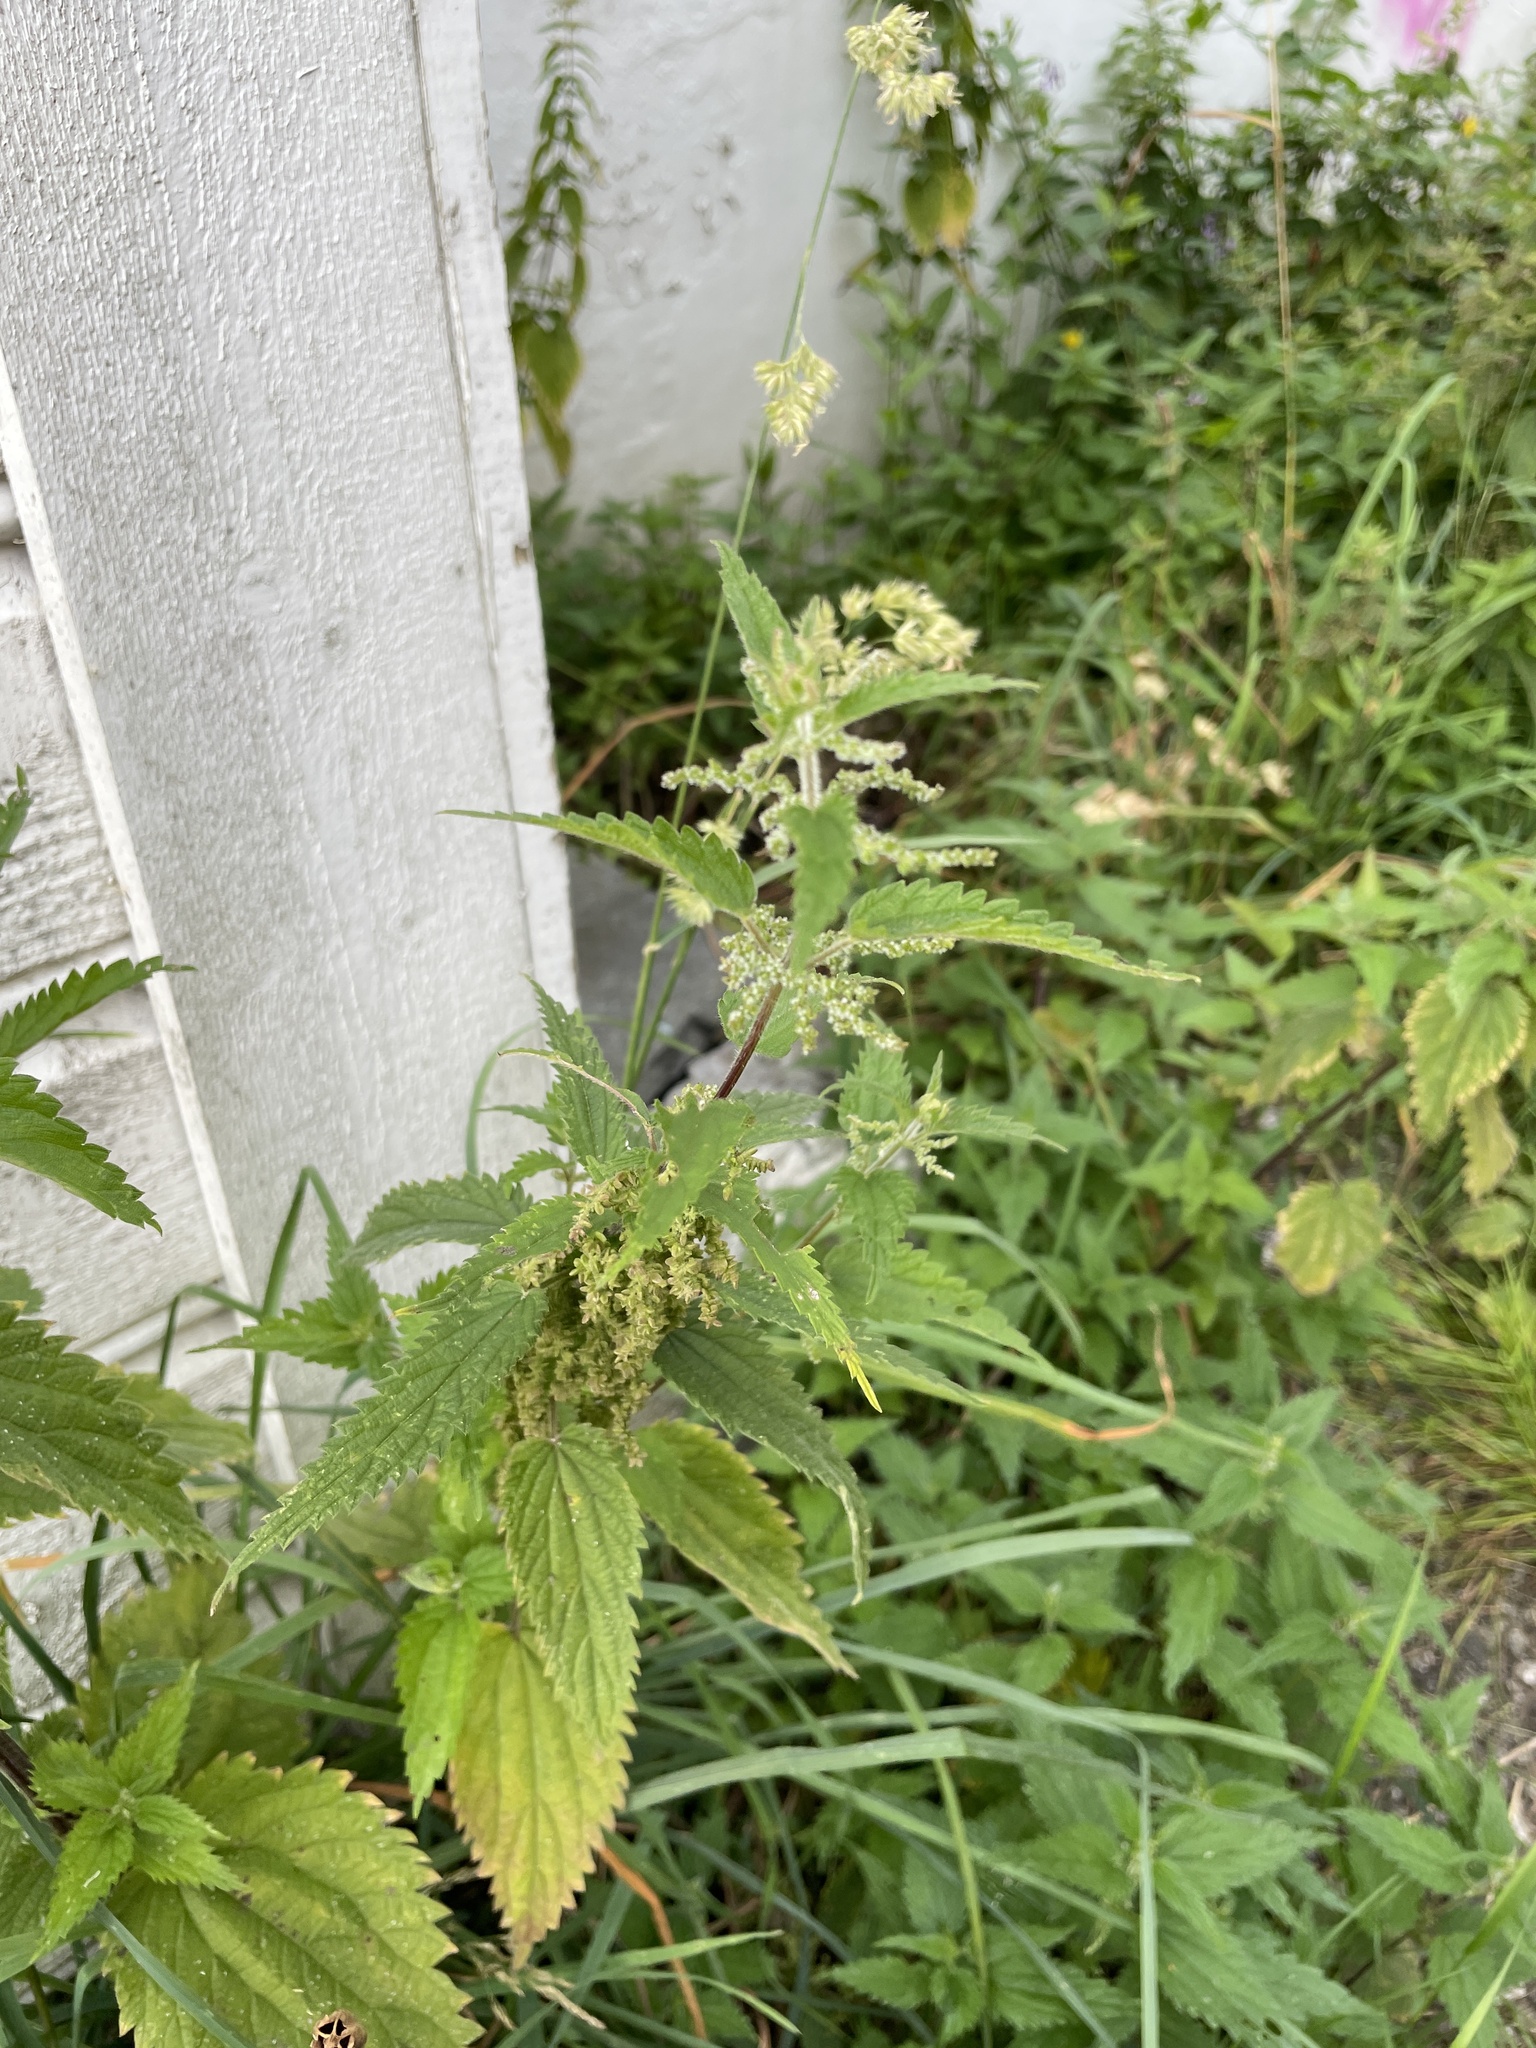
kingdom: Plantae
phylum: Tracheophyta
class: Magnoliopsida
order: Rosales
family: Urticaceae
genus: Urtica
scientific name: Urtica dioica
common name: Common nettle
